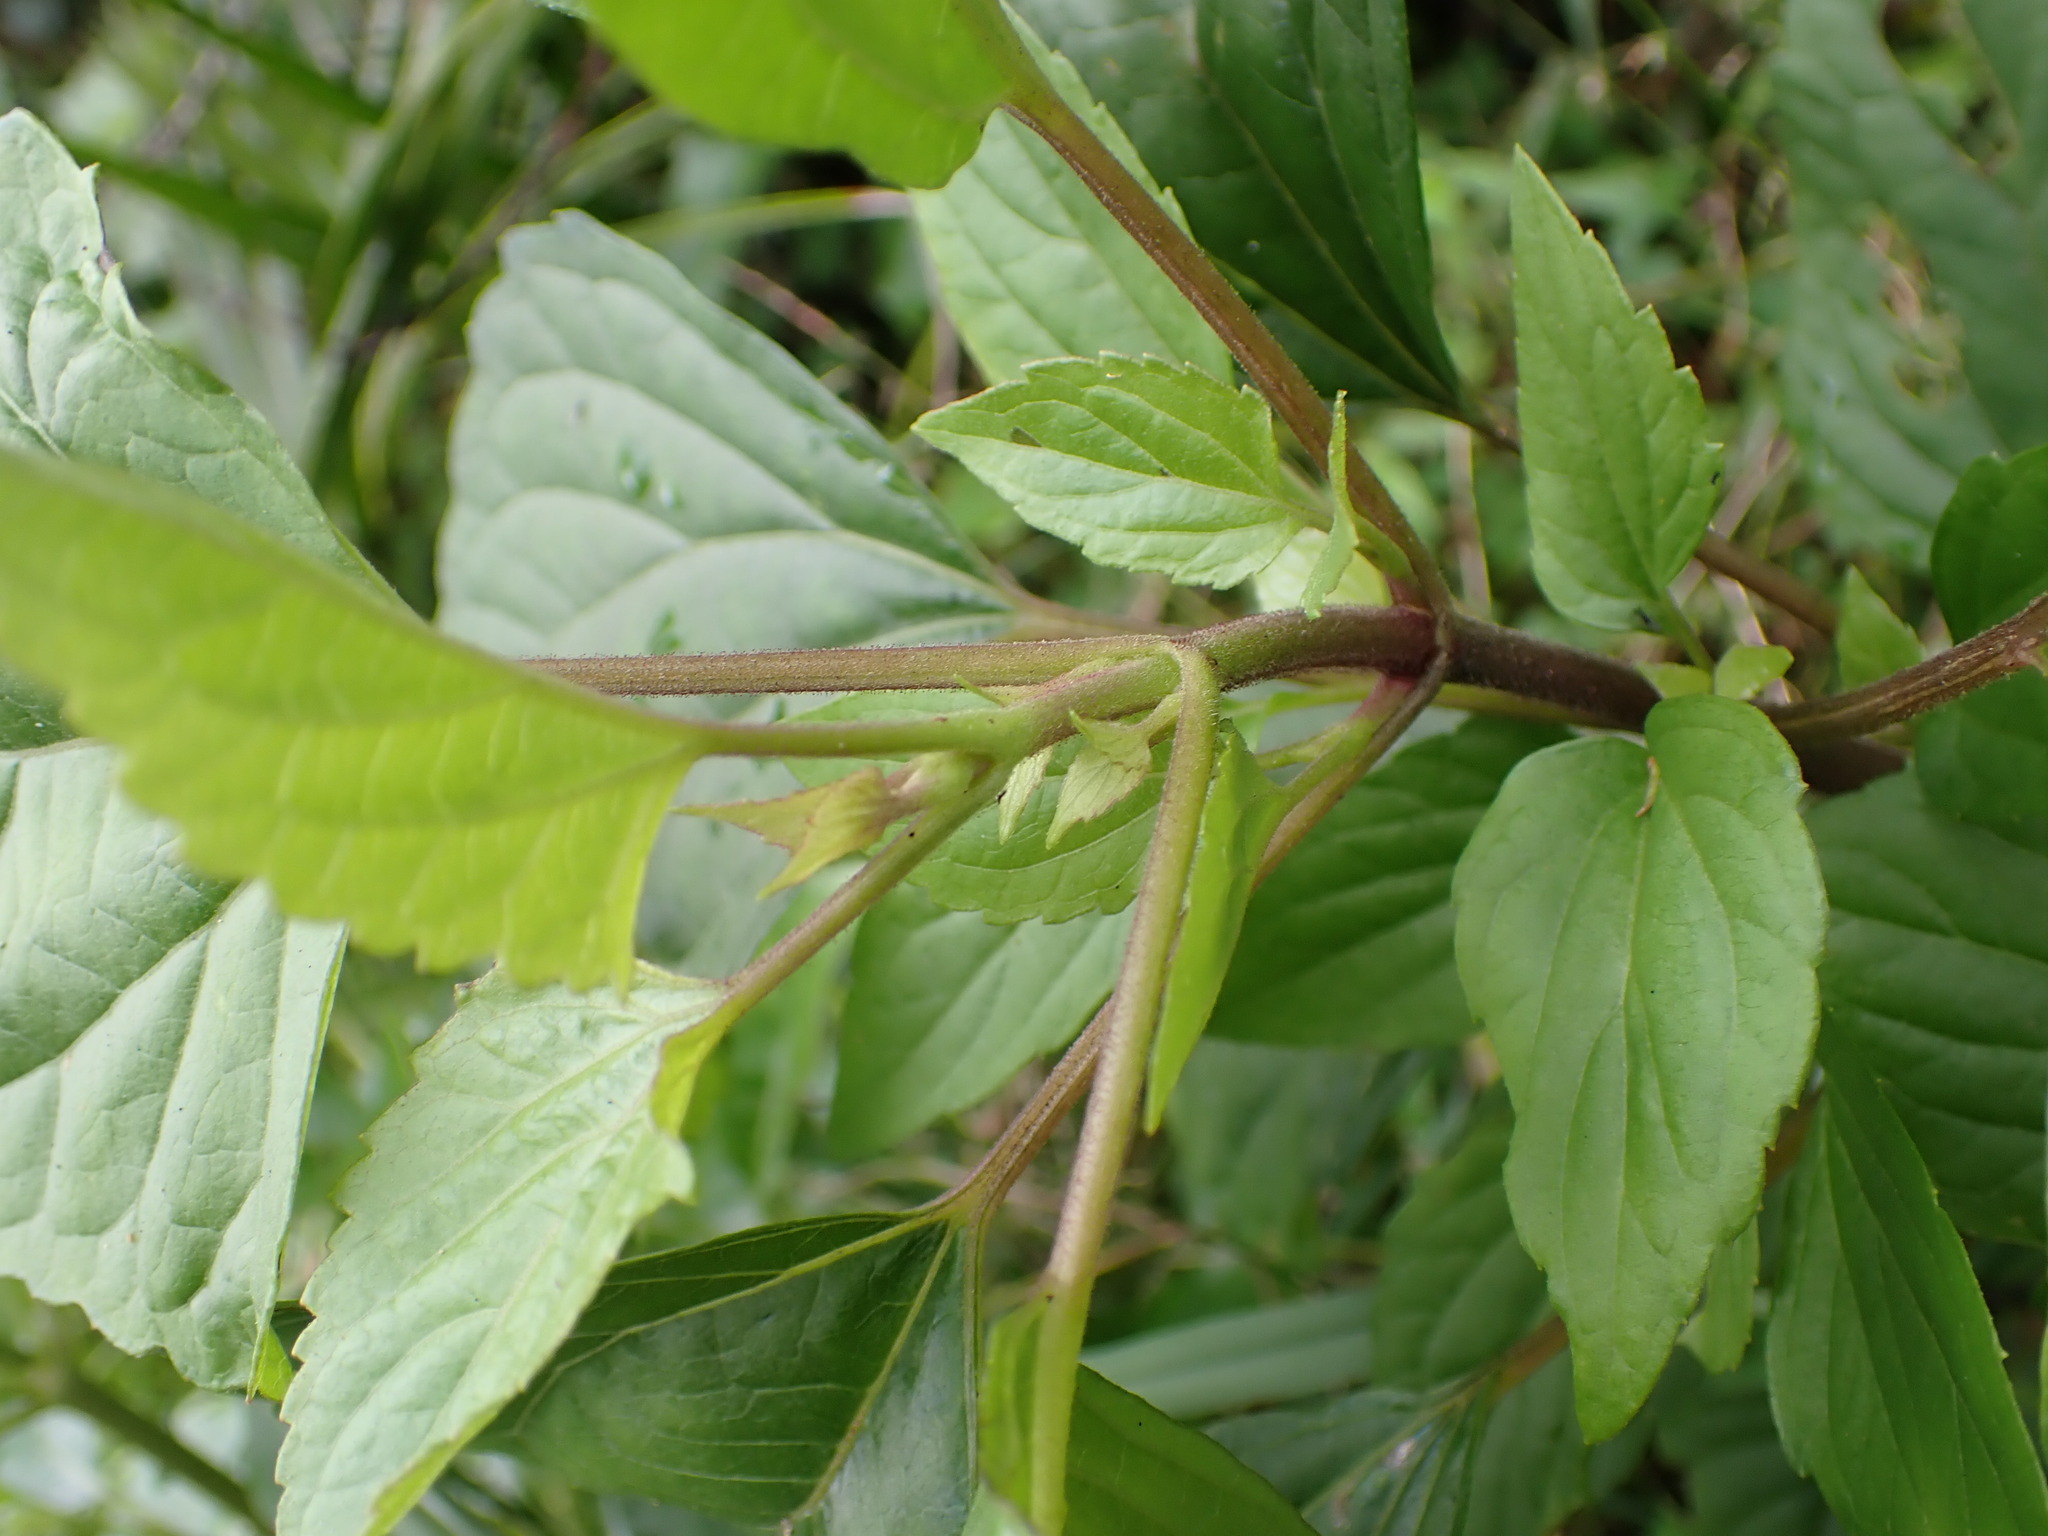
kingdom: Plantae
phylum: Tracheophyta
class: Magnoliopsida
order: Asterales
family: Asteraceae
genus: Ageratina
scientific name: Ageratina adenophora
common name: Sticky snakeroot
